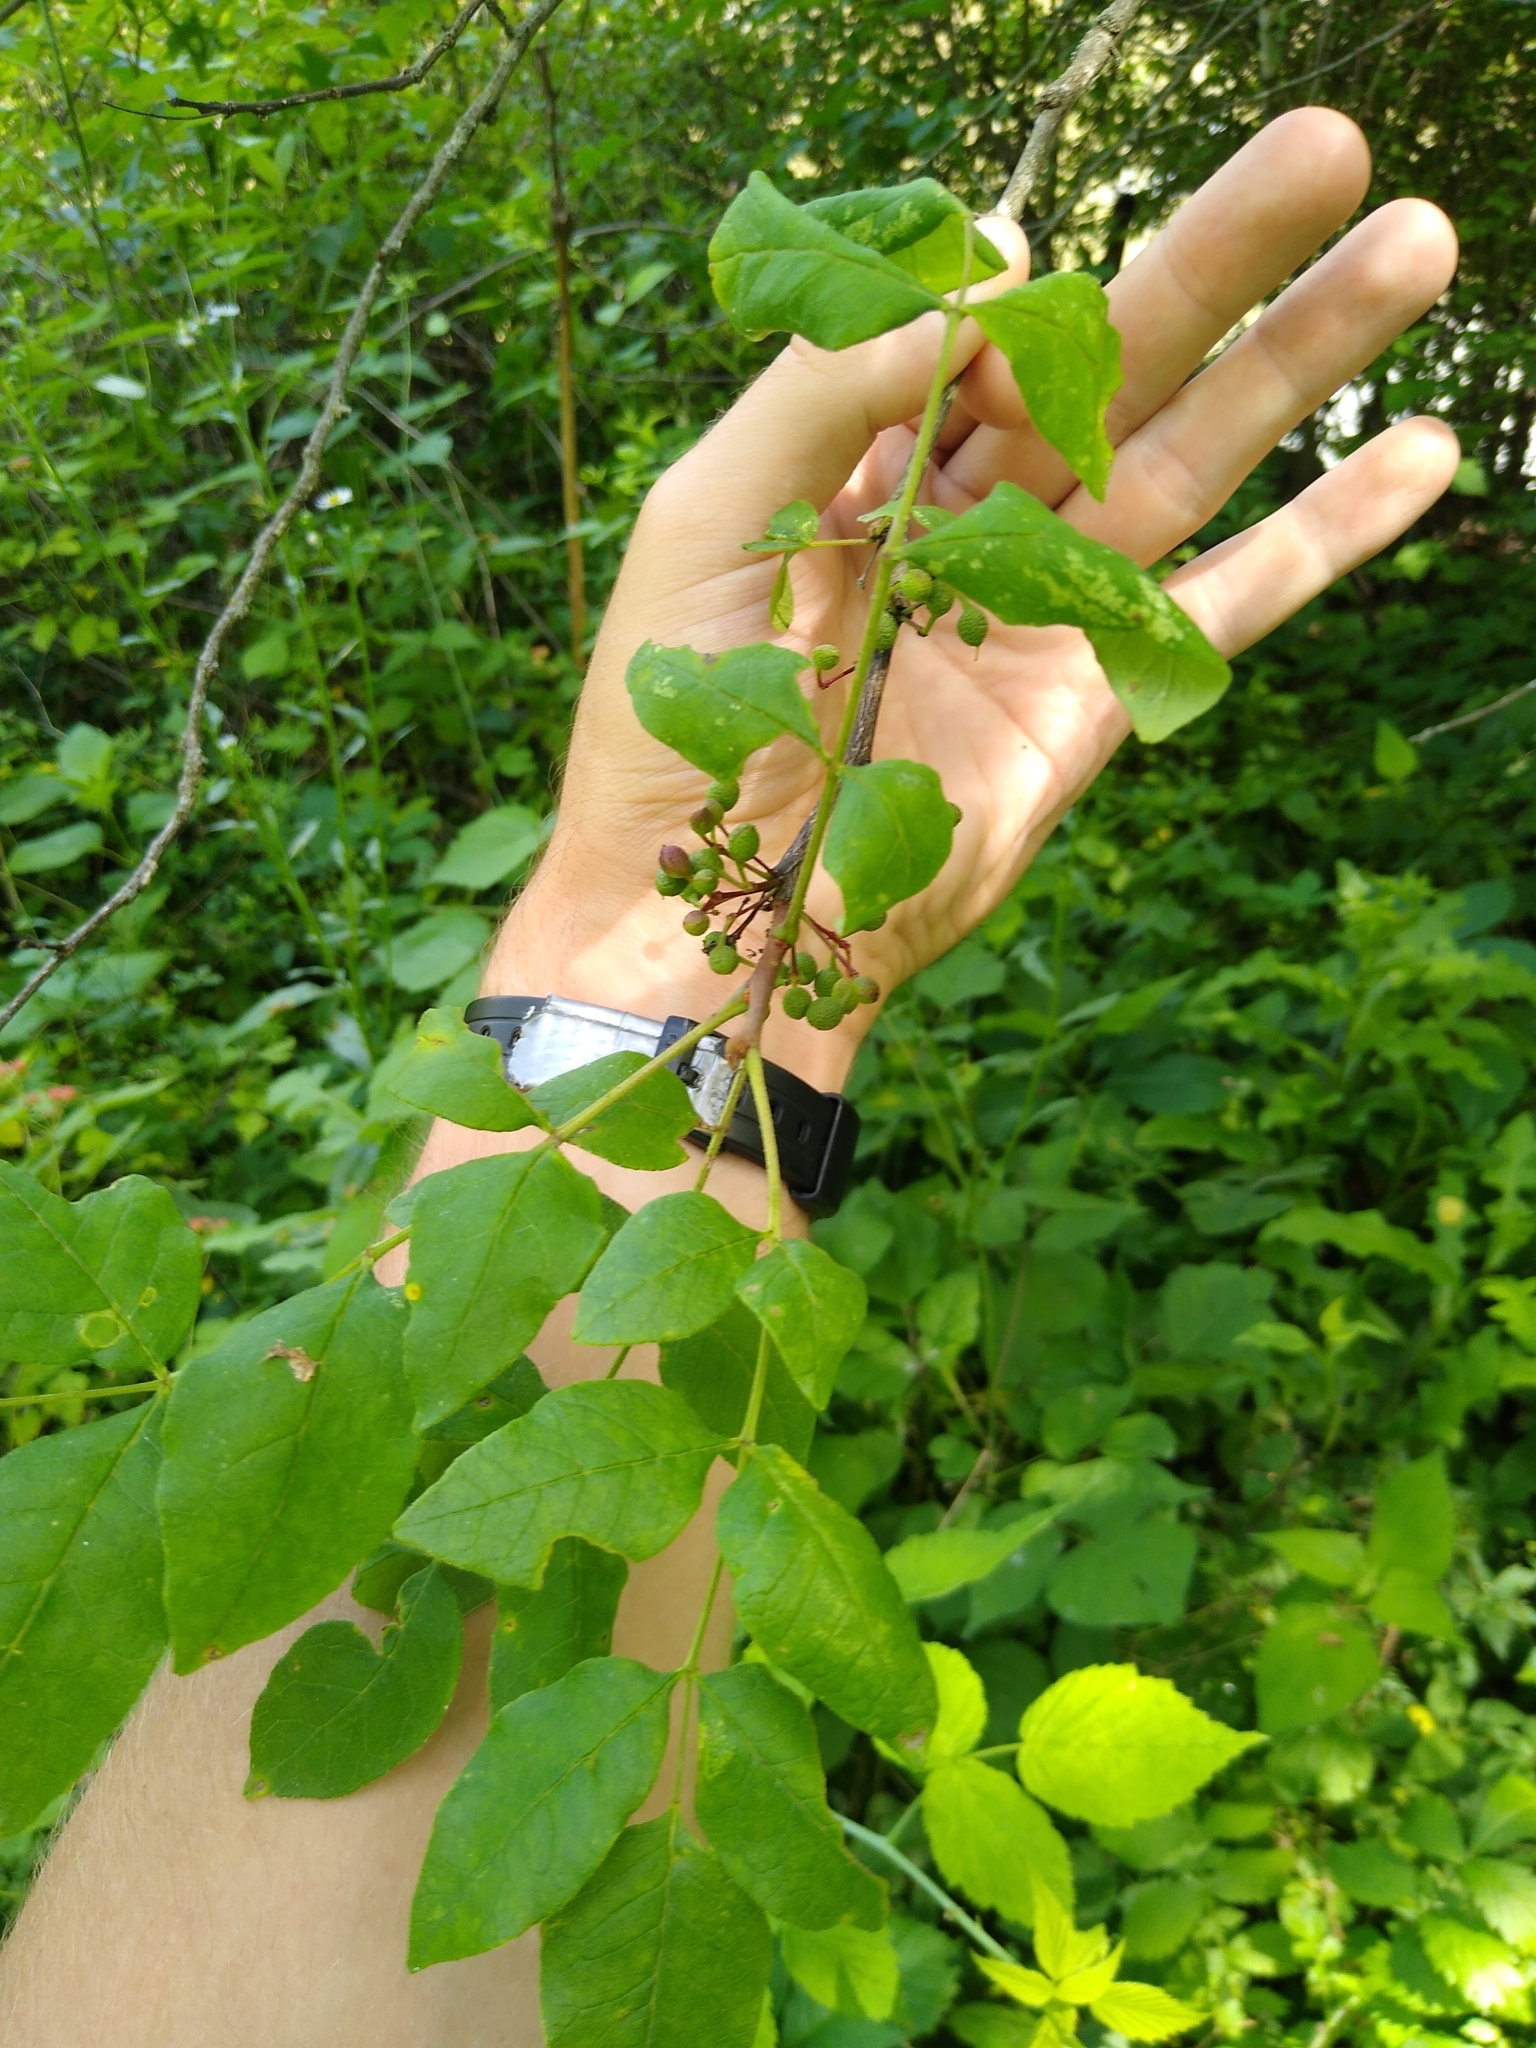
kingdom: Plantae
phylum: Tracheophyta
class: Magnoliopsida
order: Sapindales
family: Rutaceae
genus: Zanthoxylum
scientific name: Zanthoxylum americanum
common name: Northern prickly-ash
